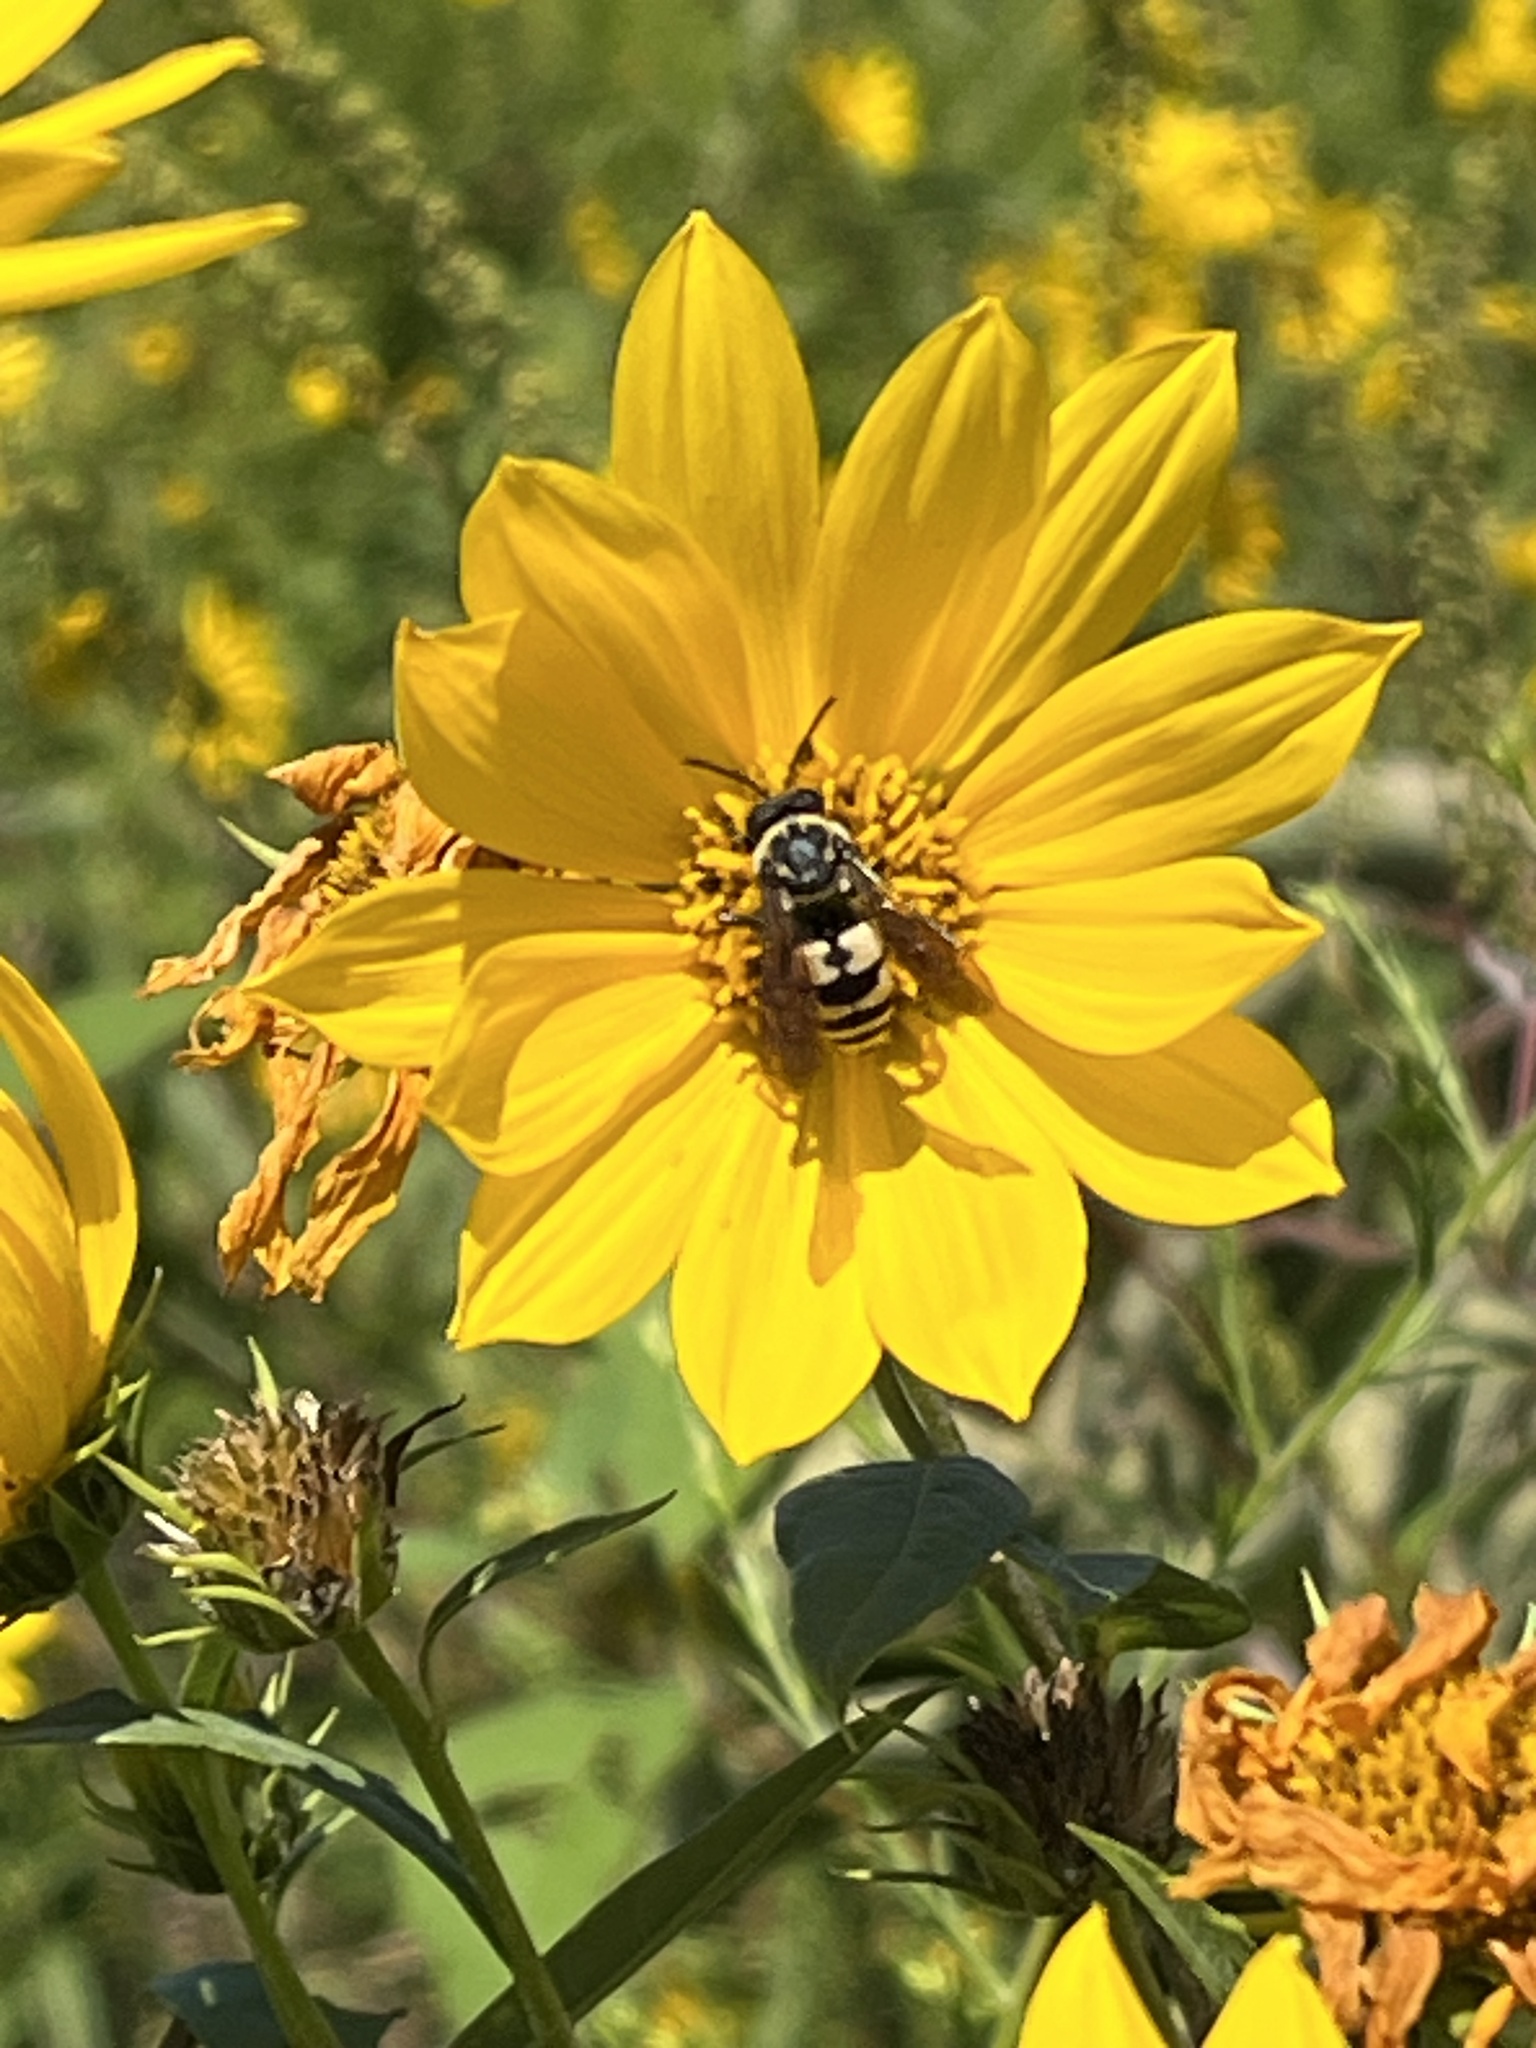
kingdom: Animalia
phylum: Arthropoda
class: Insecta
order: Hymenoptera
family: Apidae
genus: Triepeolus
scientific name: Triepeolus remigatus
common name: Squash longhorn-cuckoo
